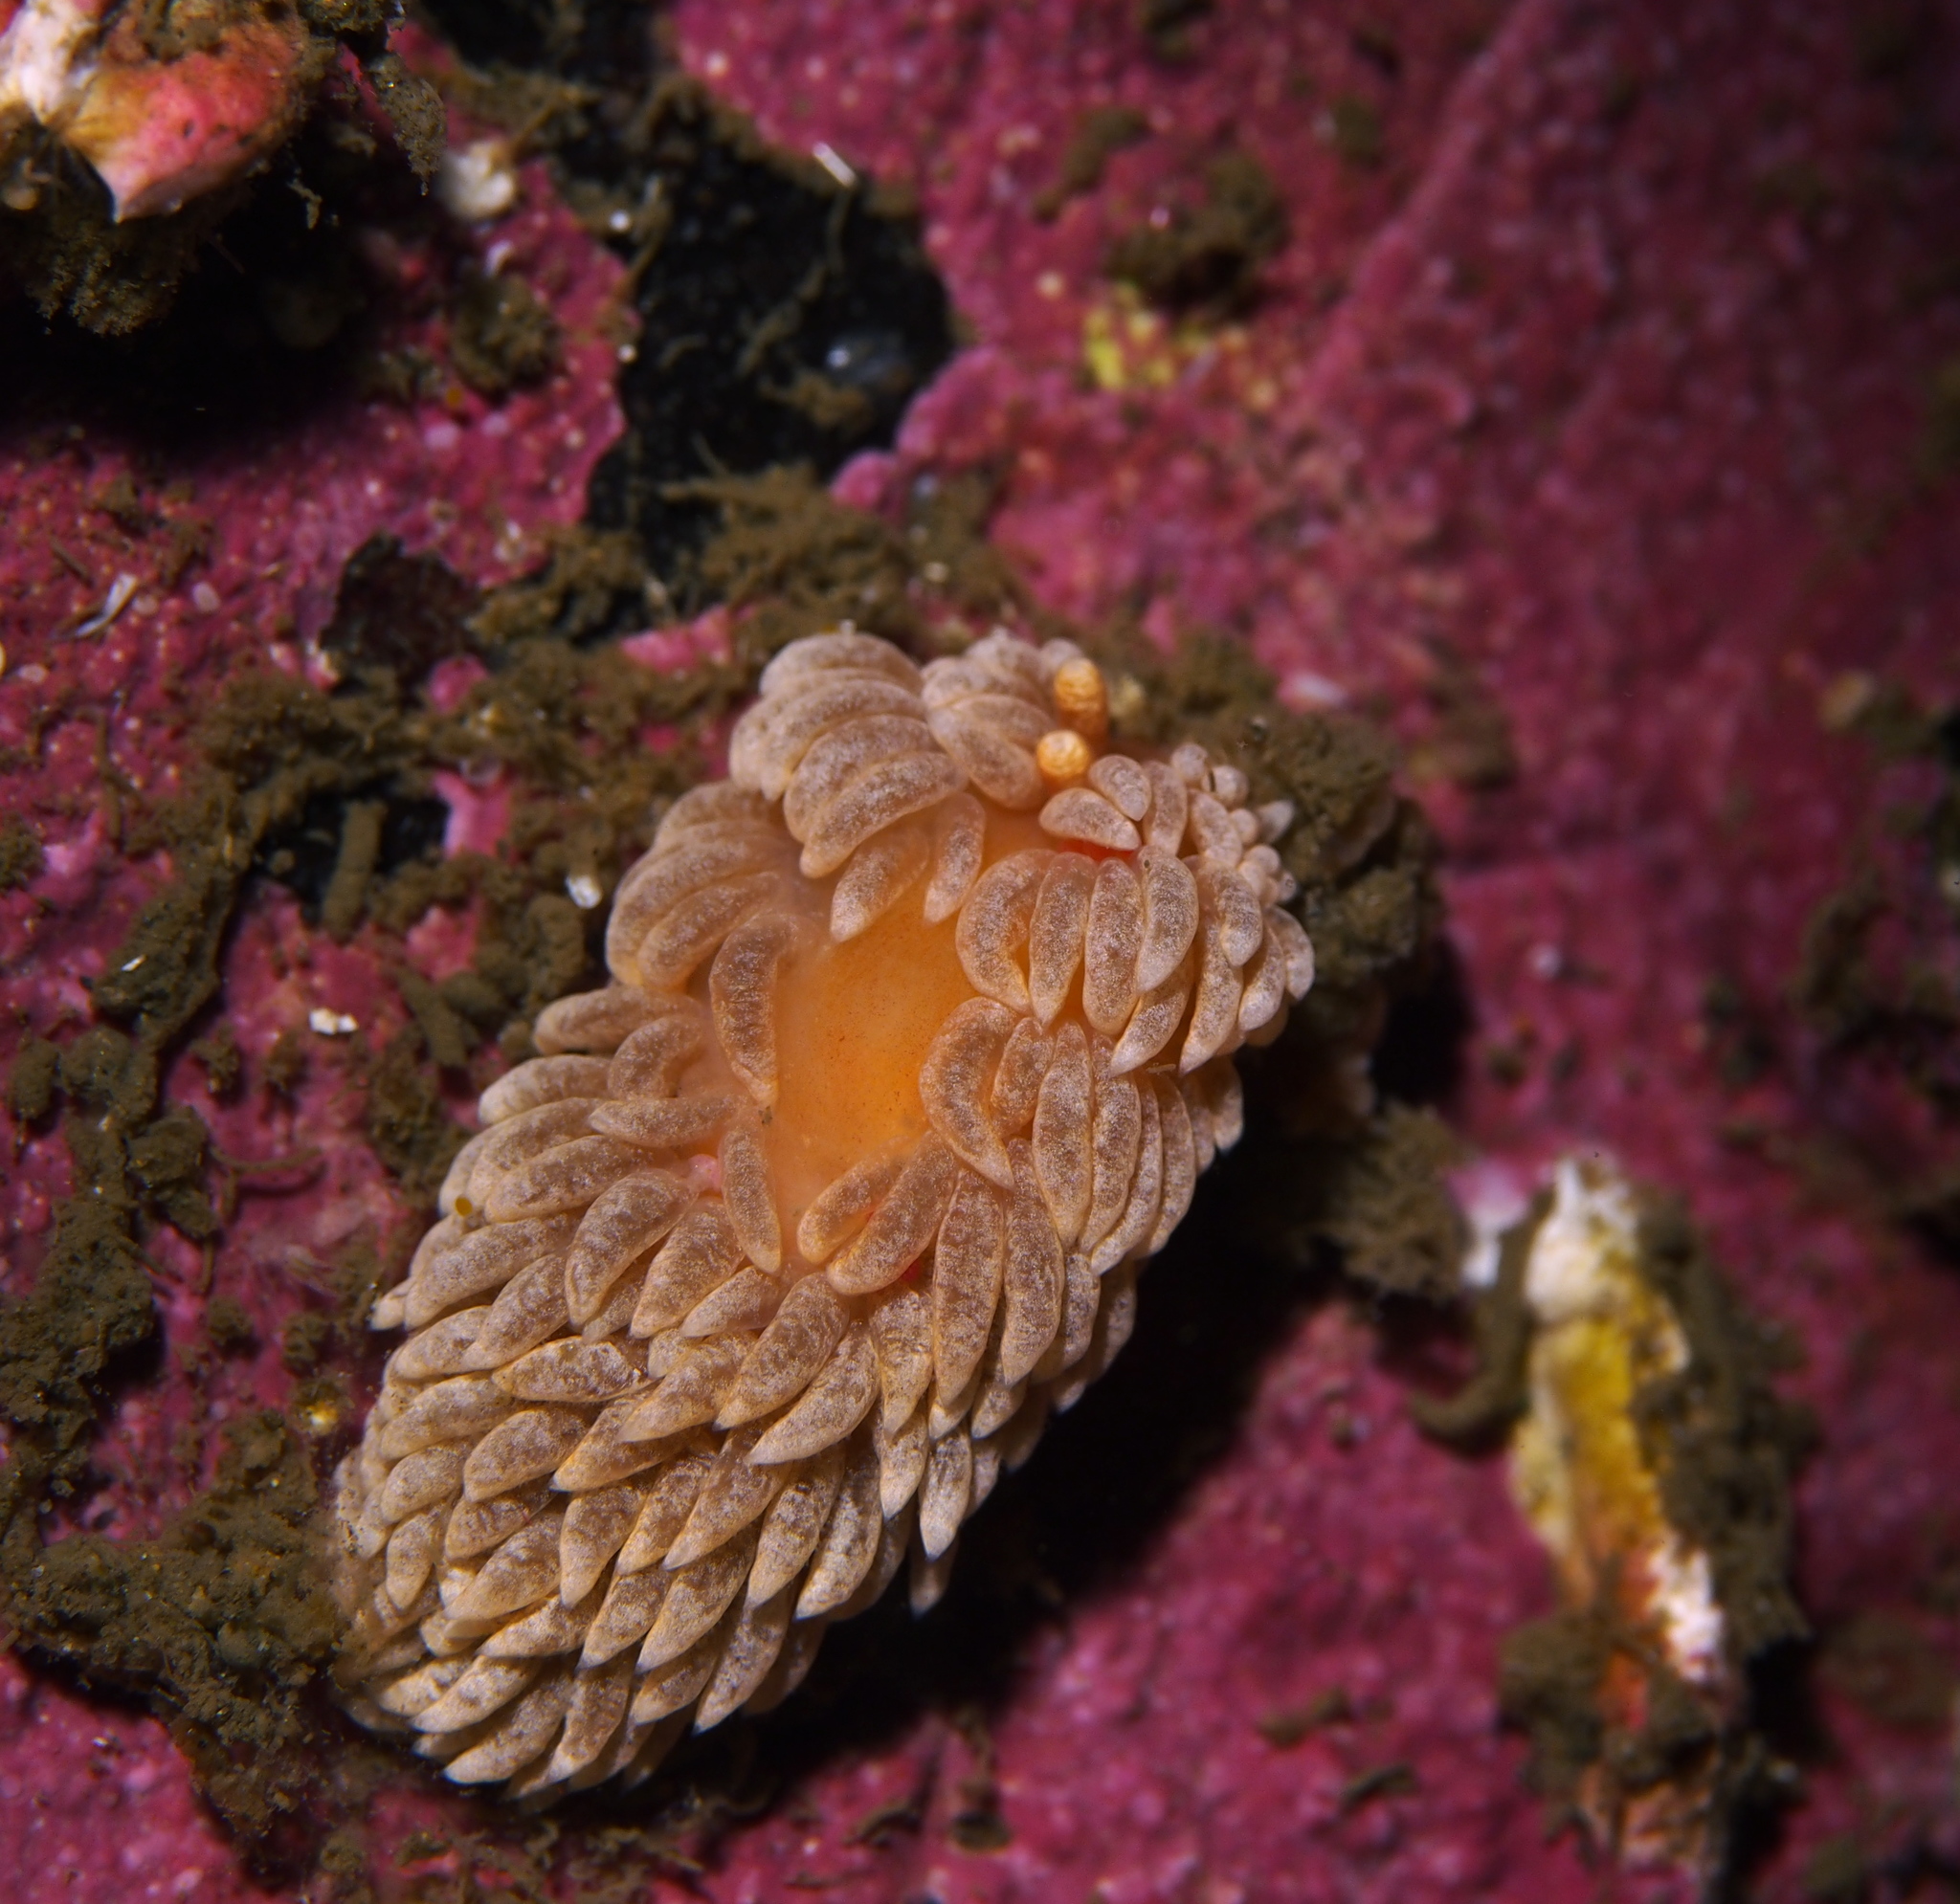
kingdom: Animalia
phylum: Mollusca
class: Gastropoda
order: Nudibranchia
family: Aeolidiidae
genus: Aeolidiella
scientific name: Aeolidiella glauca
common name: Orange-brown aeolid
